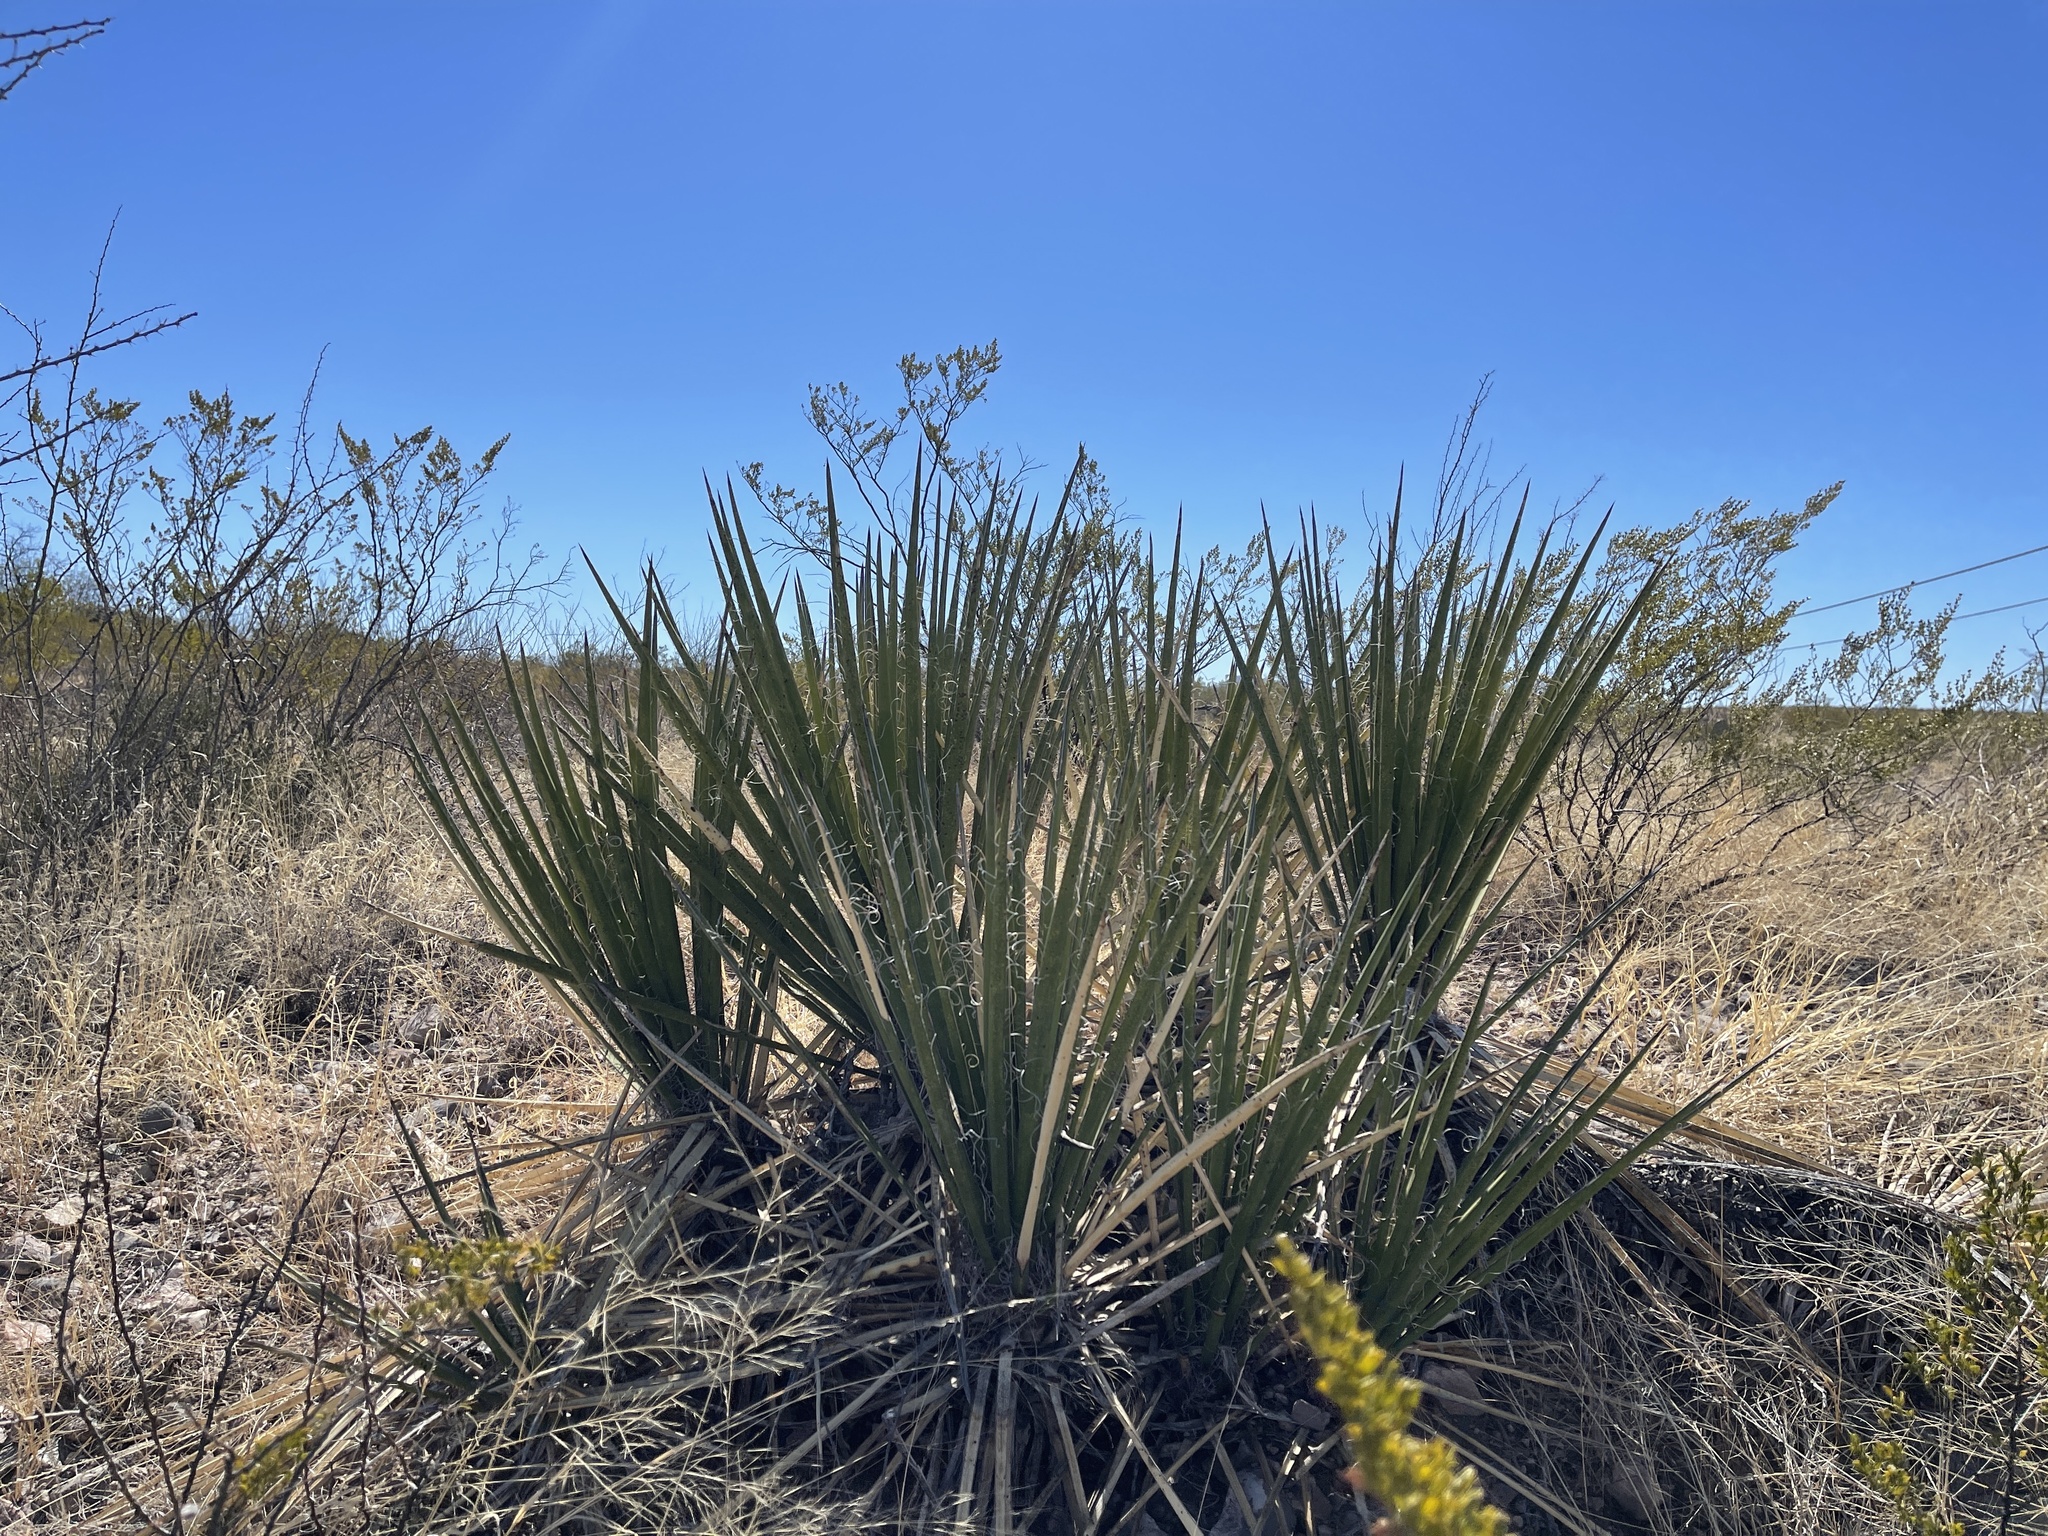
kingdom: Plantae
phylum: Tracheophyta
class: Liliopsida
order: Asparagales
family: Asparagaceae
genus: Yucca
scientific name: Yucca baccata
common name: Banana yucca
